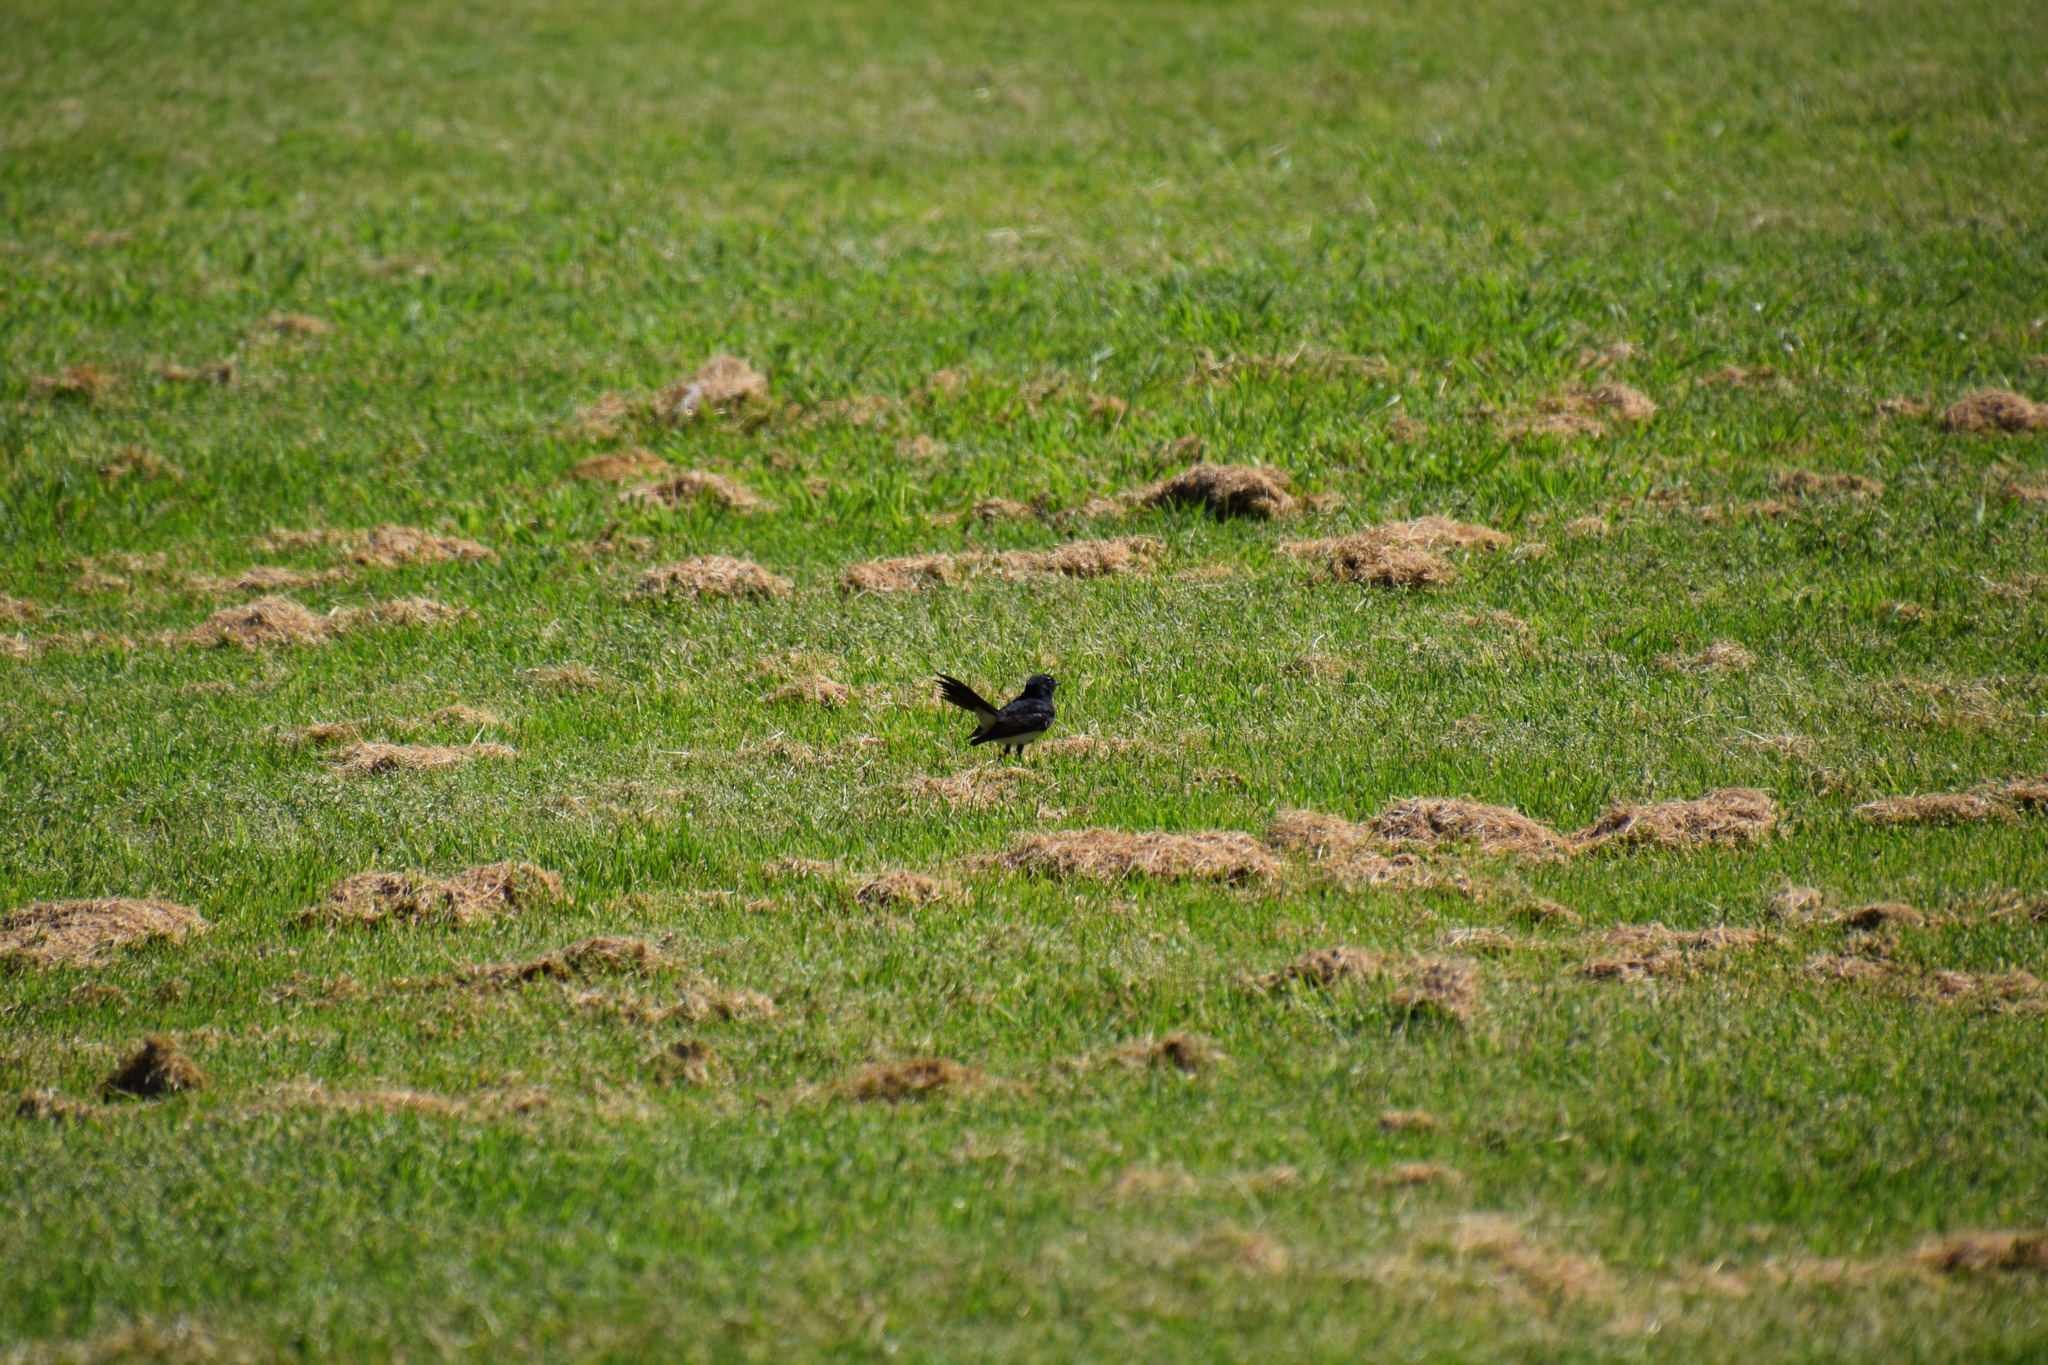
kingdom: Animalia
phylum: Chordata
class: Aves
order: Passeriformes
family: Rhipiduridae
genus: Rhipidura
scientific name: Rhipidura leucophrys
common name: Willie wagtail
